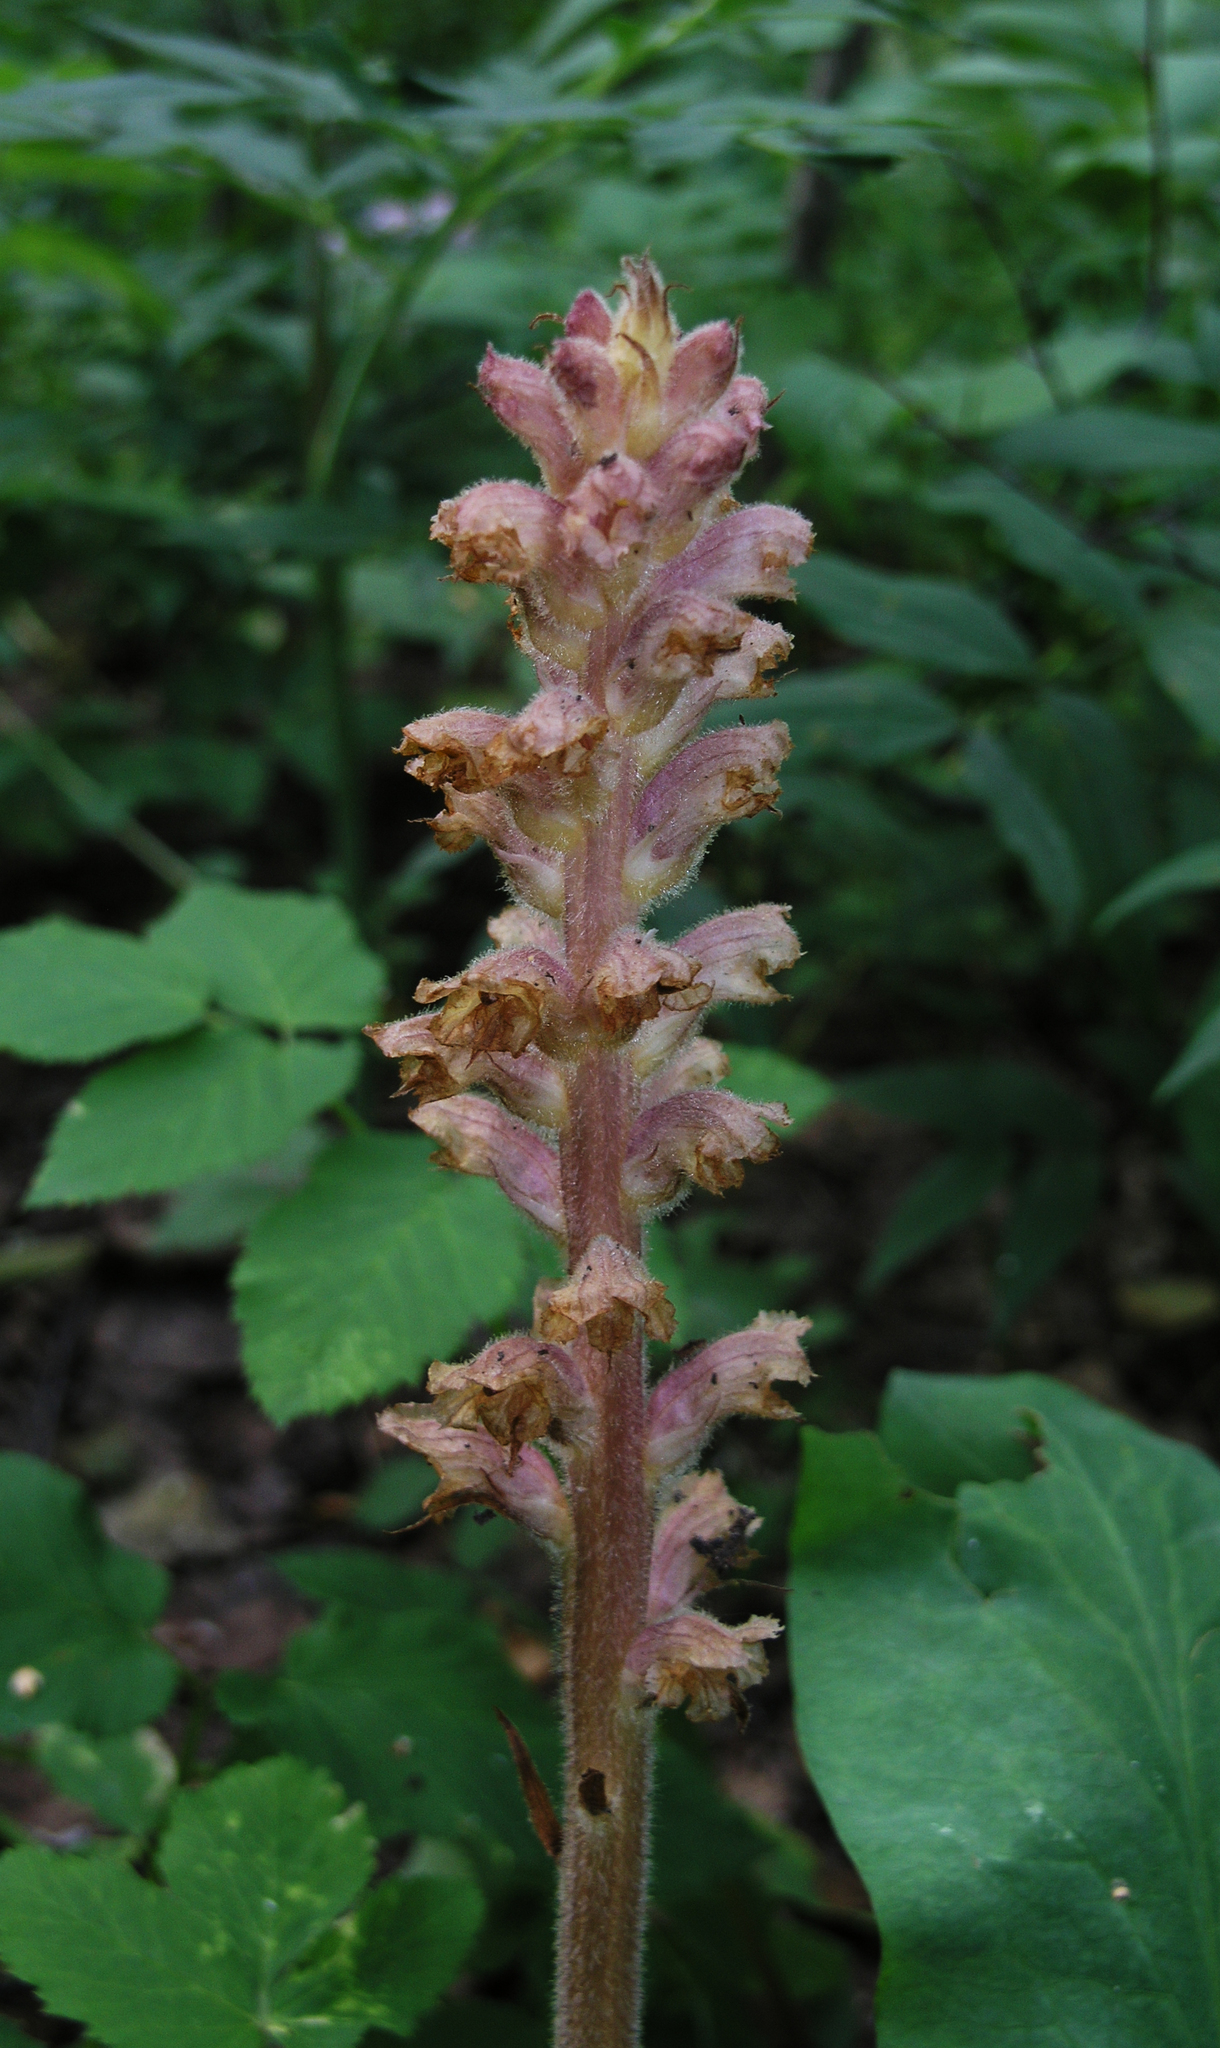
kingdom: Plantae
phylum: Tracheophyta
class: Magnoliopsida
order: Lamiales
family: Orobanchaceae
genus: Orobanche
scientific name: Orobanche alsatica
